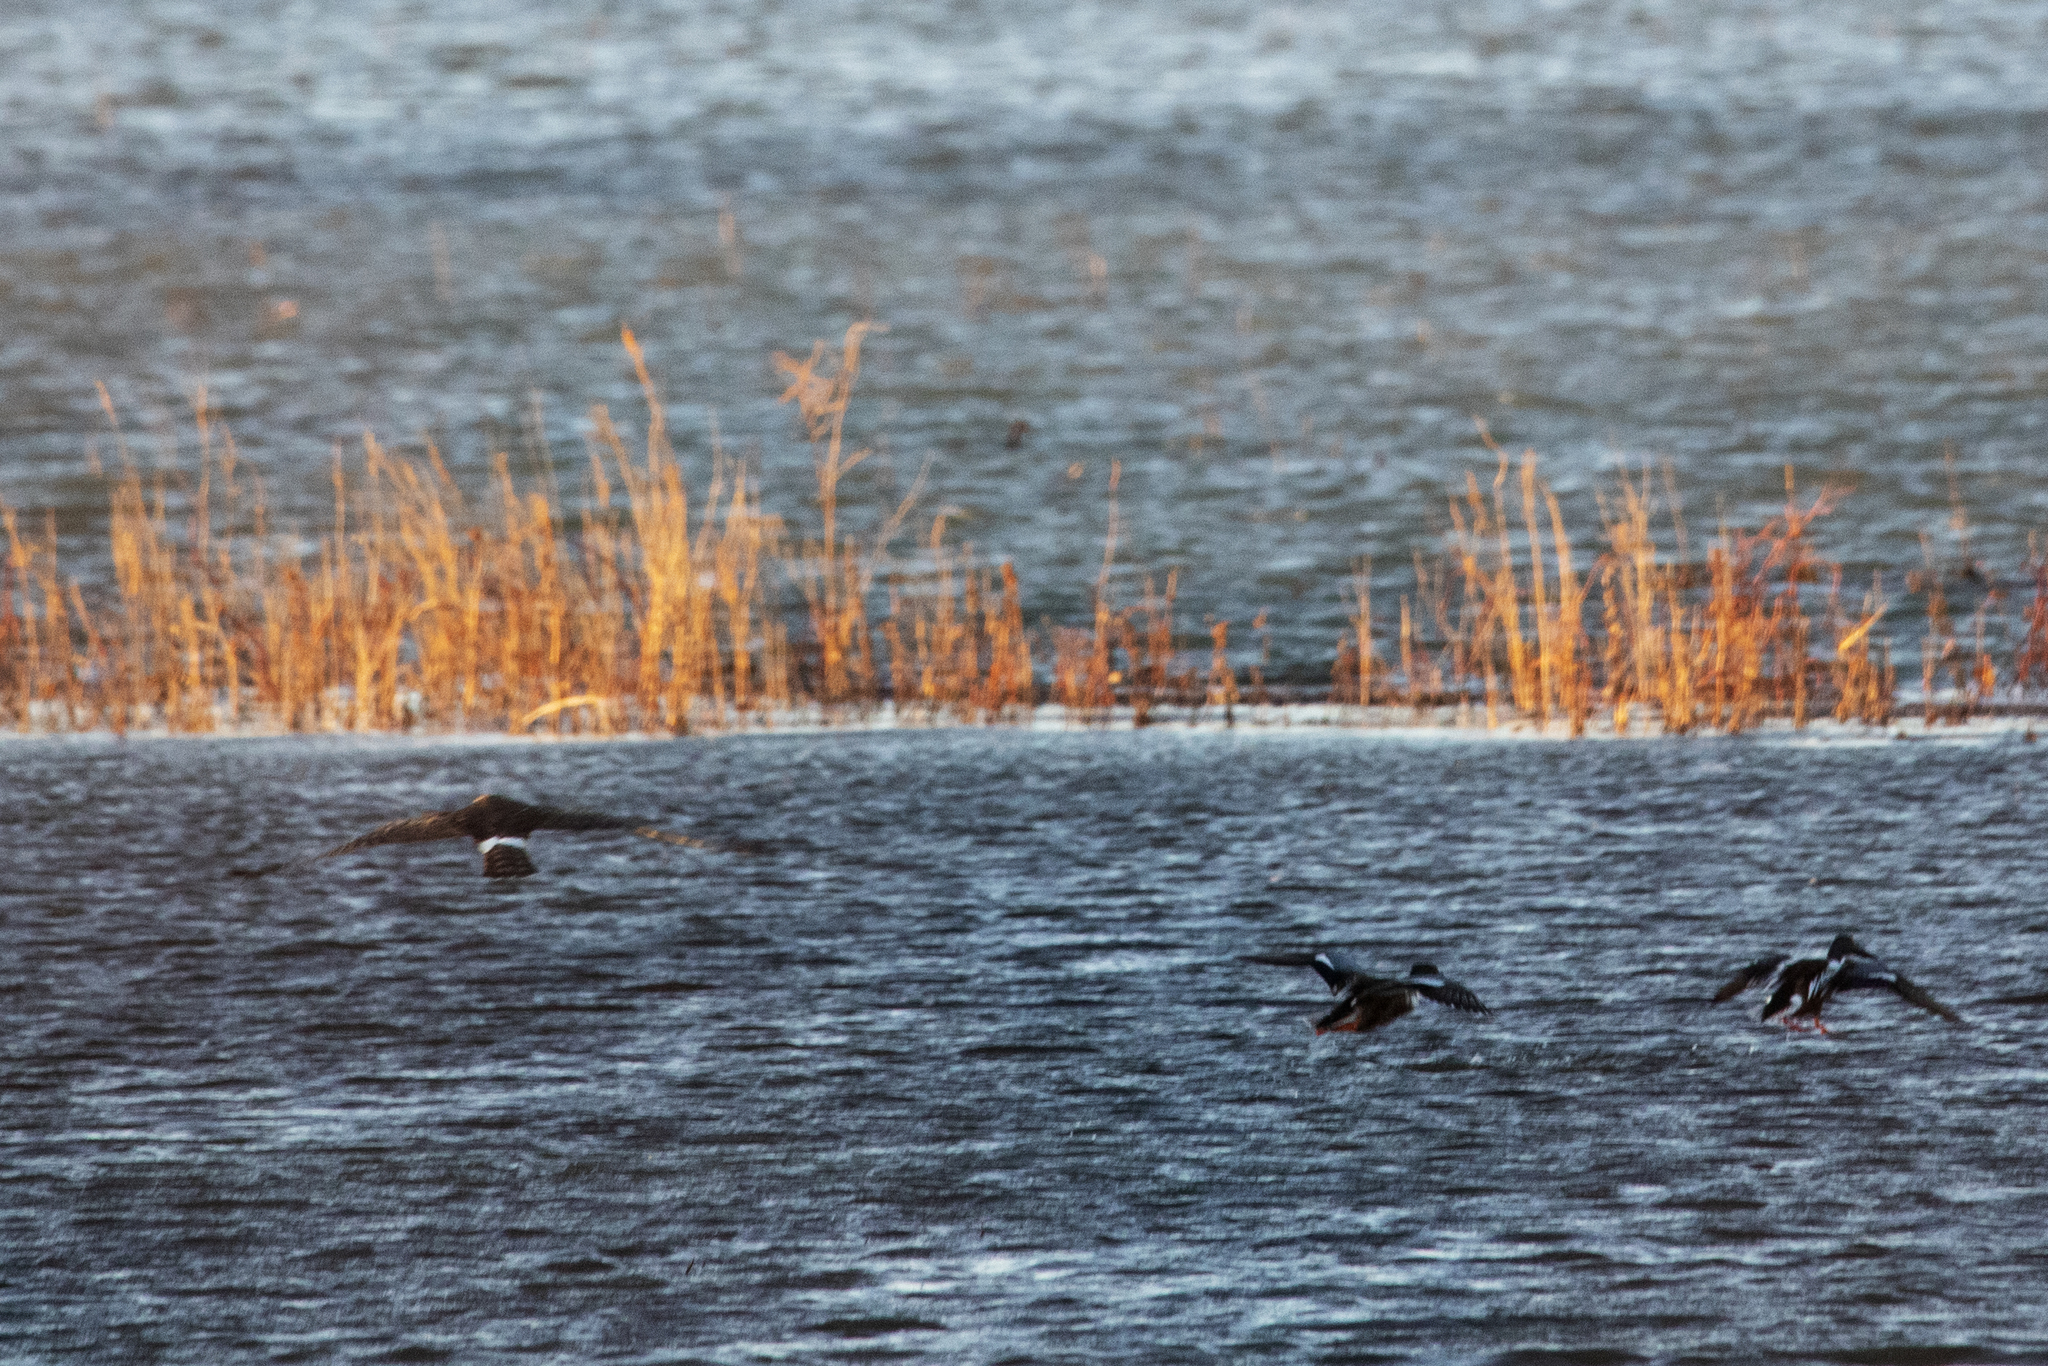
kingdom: Animalia
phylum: Chordata
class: Aves
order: Accipitriformes
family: Accipitridae
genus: Circus
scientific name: Circus cyaneus
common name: Hen harrier
